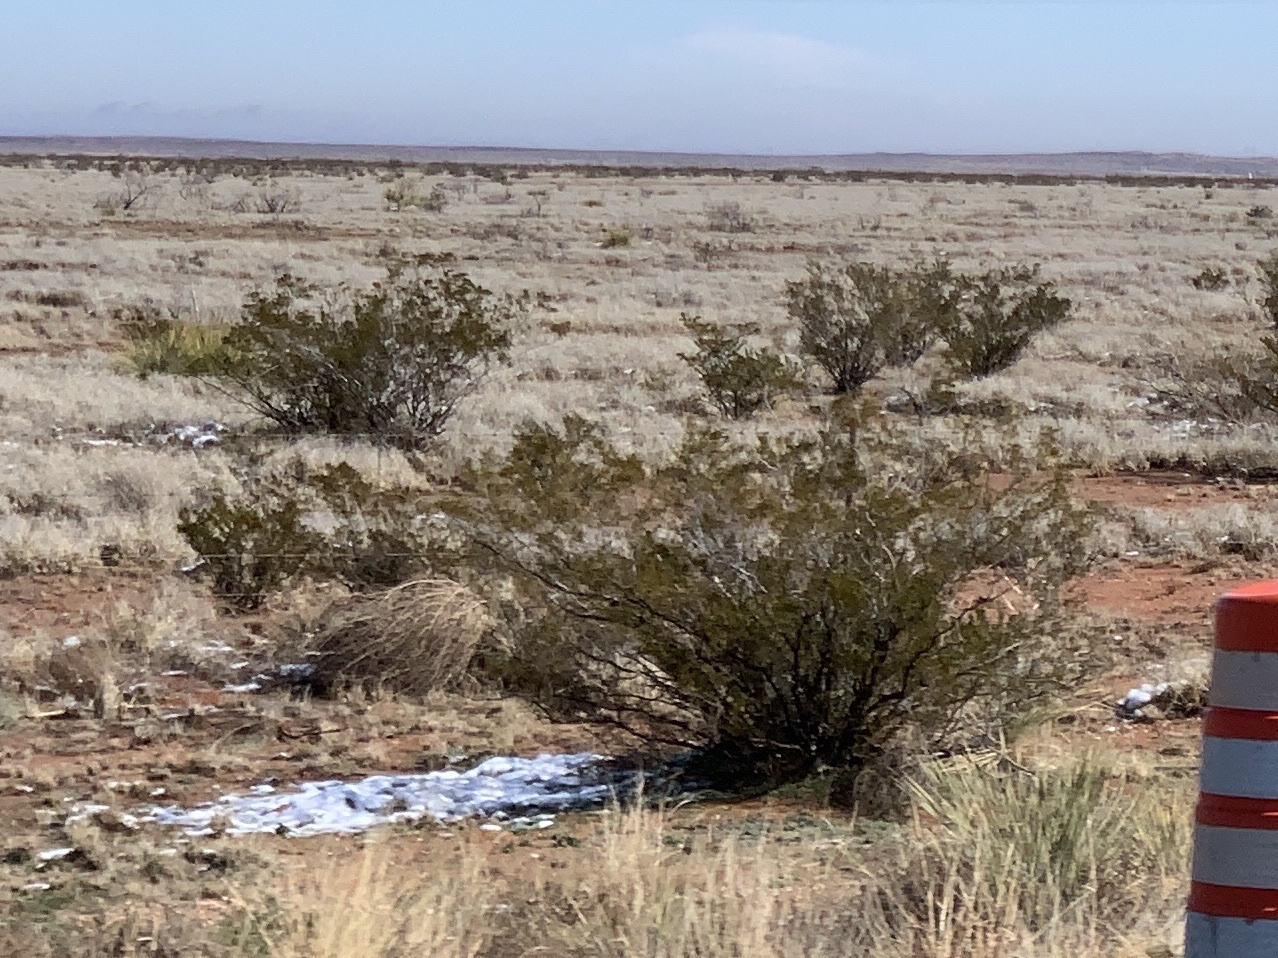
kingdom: Plantae
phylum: Tracheophyta
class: Magnoliopsida
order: Zygophyllales
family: Zygophyllaceae
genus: Larrea
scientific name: Larrea tridentata
